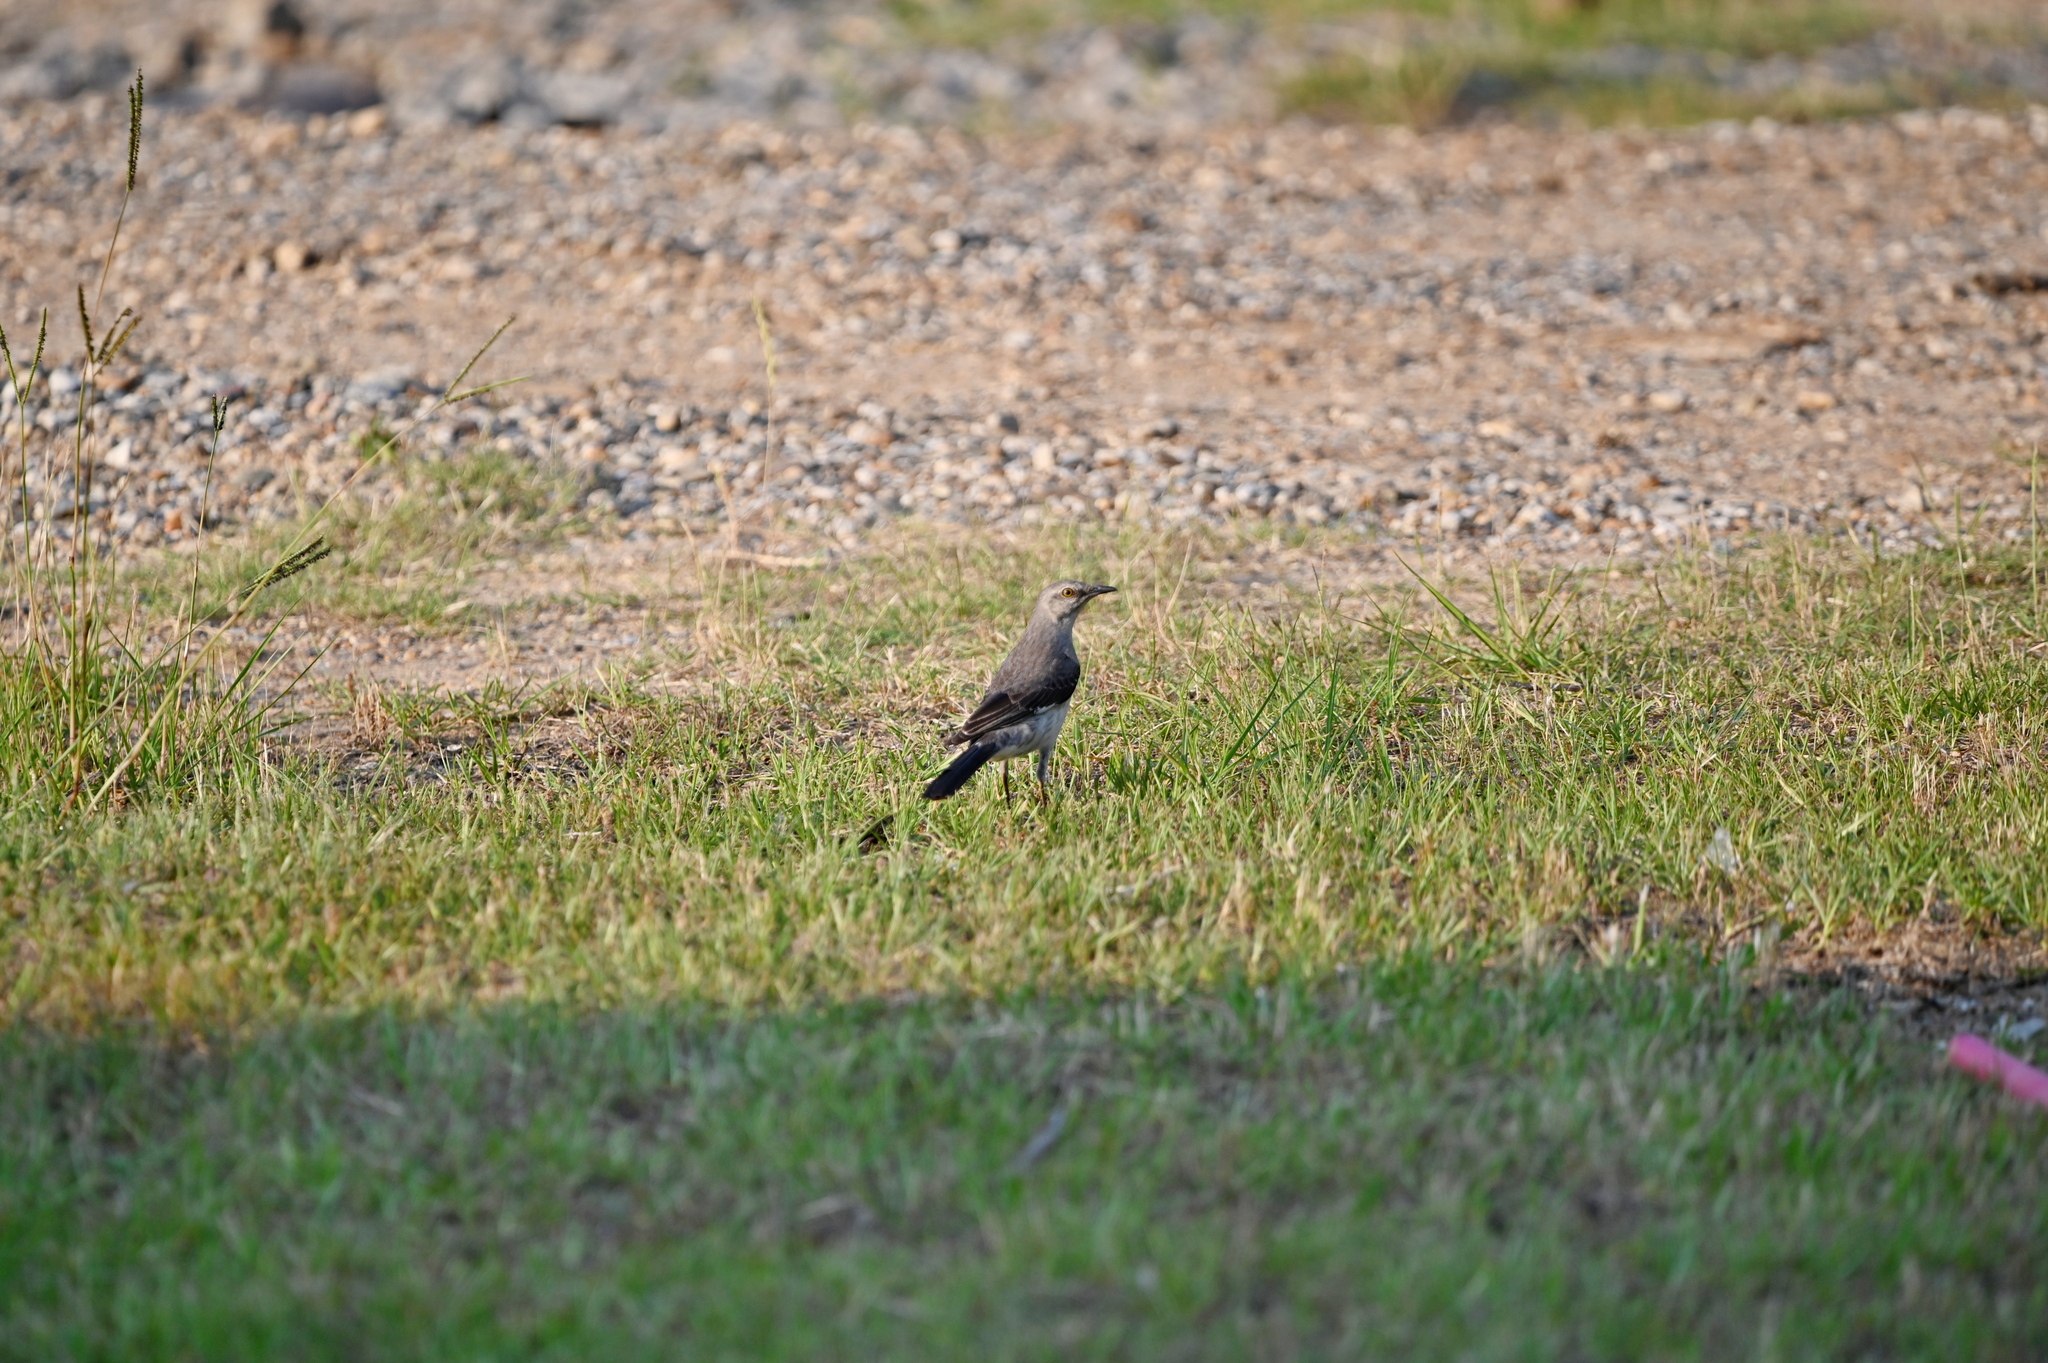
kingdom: Animalia
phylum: Chordata
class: Aves
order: Passeriformes
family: Mimidae
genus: Mimus
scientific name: Mimus polyglottos
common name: Northern mockingbird
